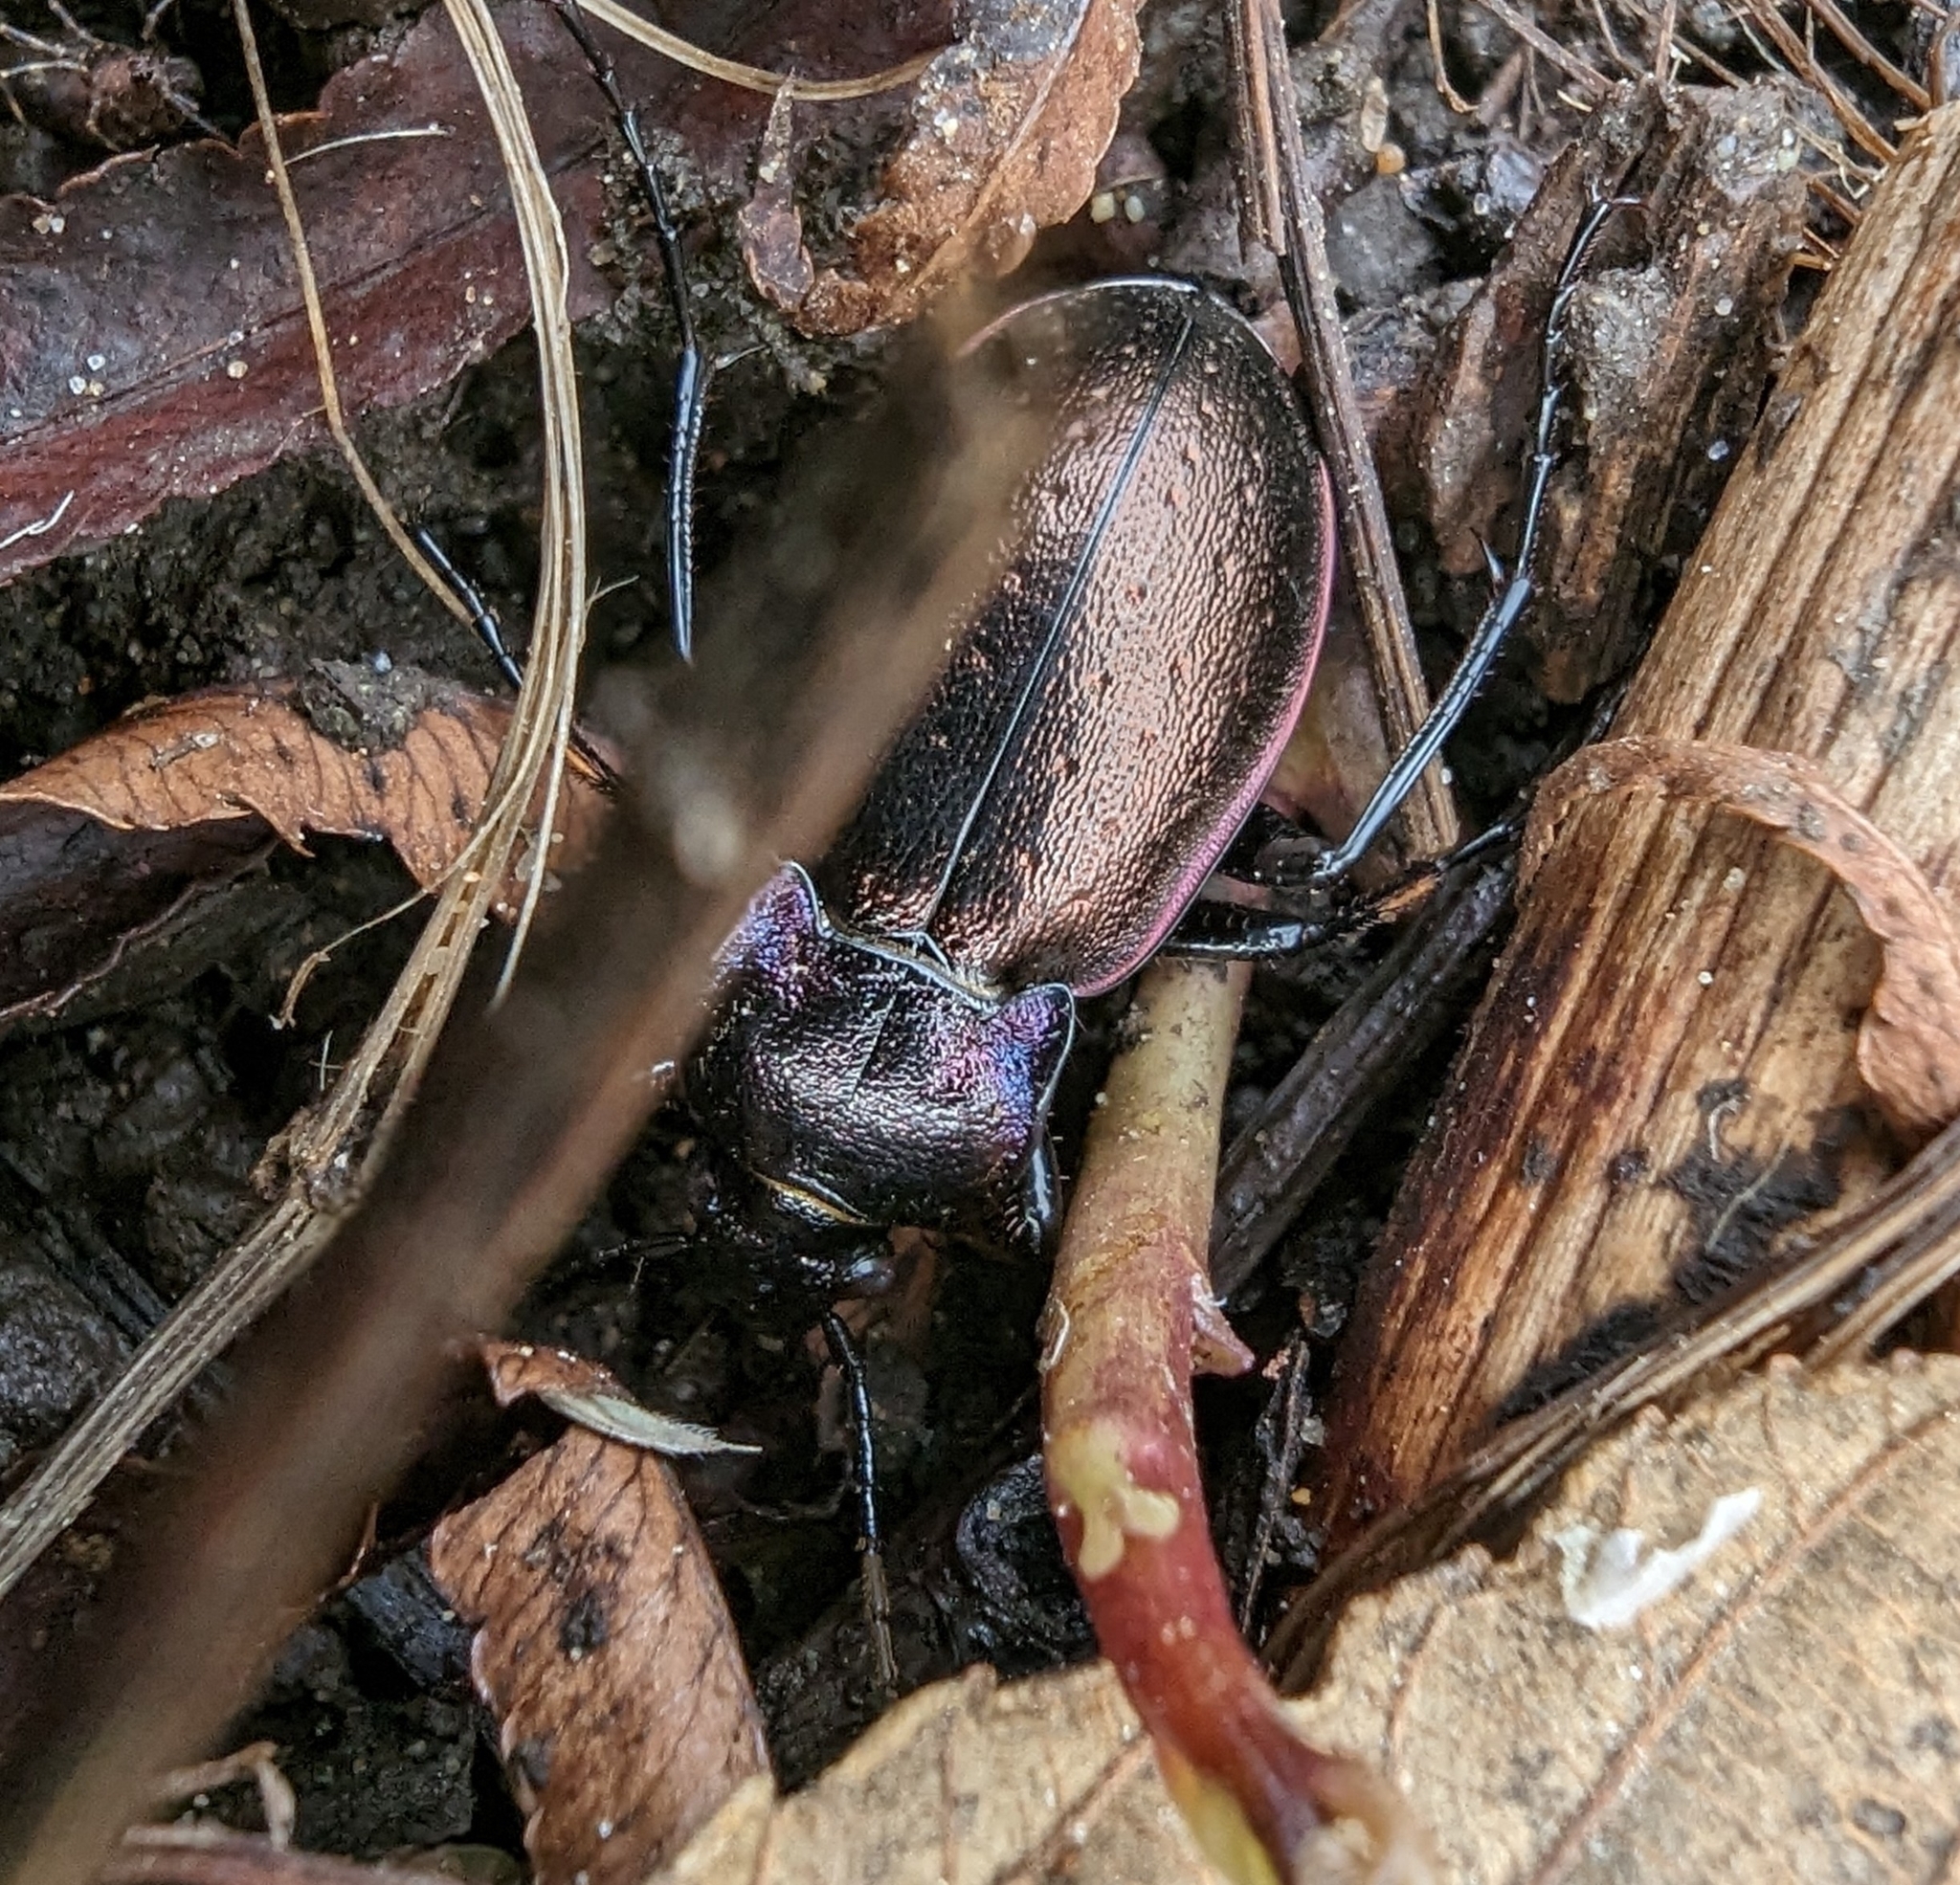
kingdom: Animalia
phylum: Arthropoda
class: Insecta
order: Coleoptera
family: Carabidae
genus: Carabus
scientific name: Carabus nemoralis
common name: European ground beetle
